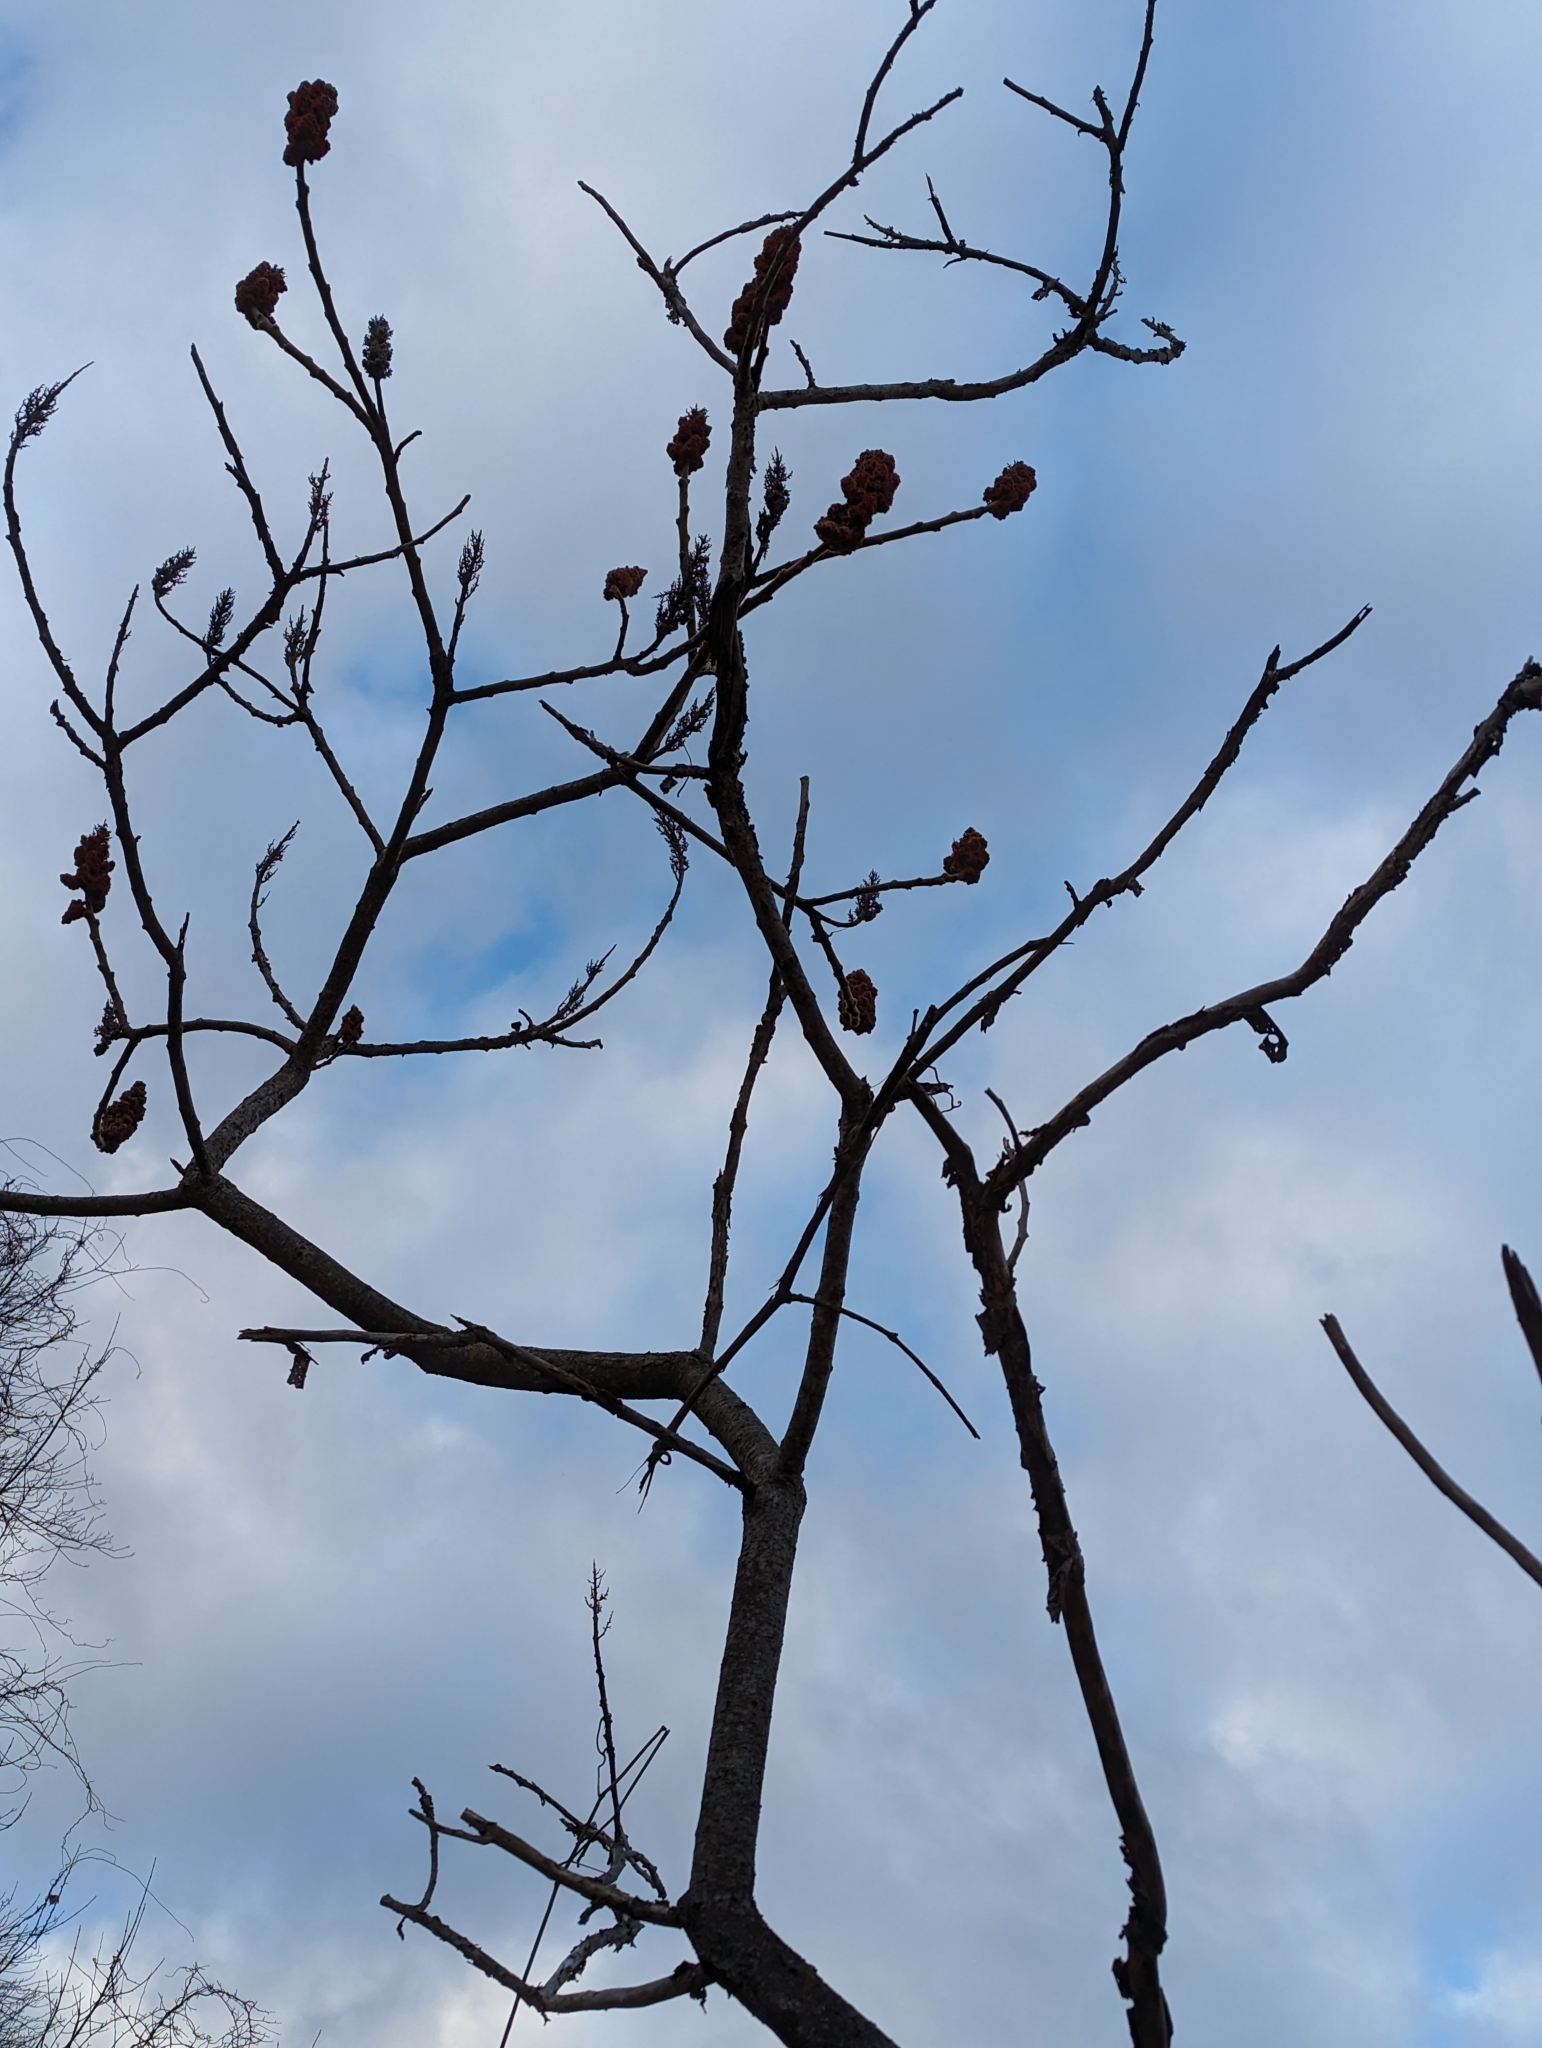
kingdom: Plantae
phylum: Tracheophyta
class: Magnoliopsida
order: Sapindales
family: Anacardiaceae
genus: Rhus
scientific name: Rhus typhina
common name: Staghorn sumac
